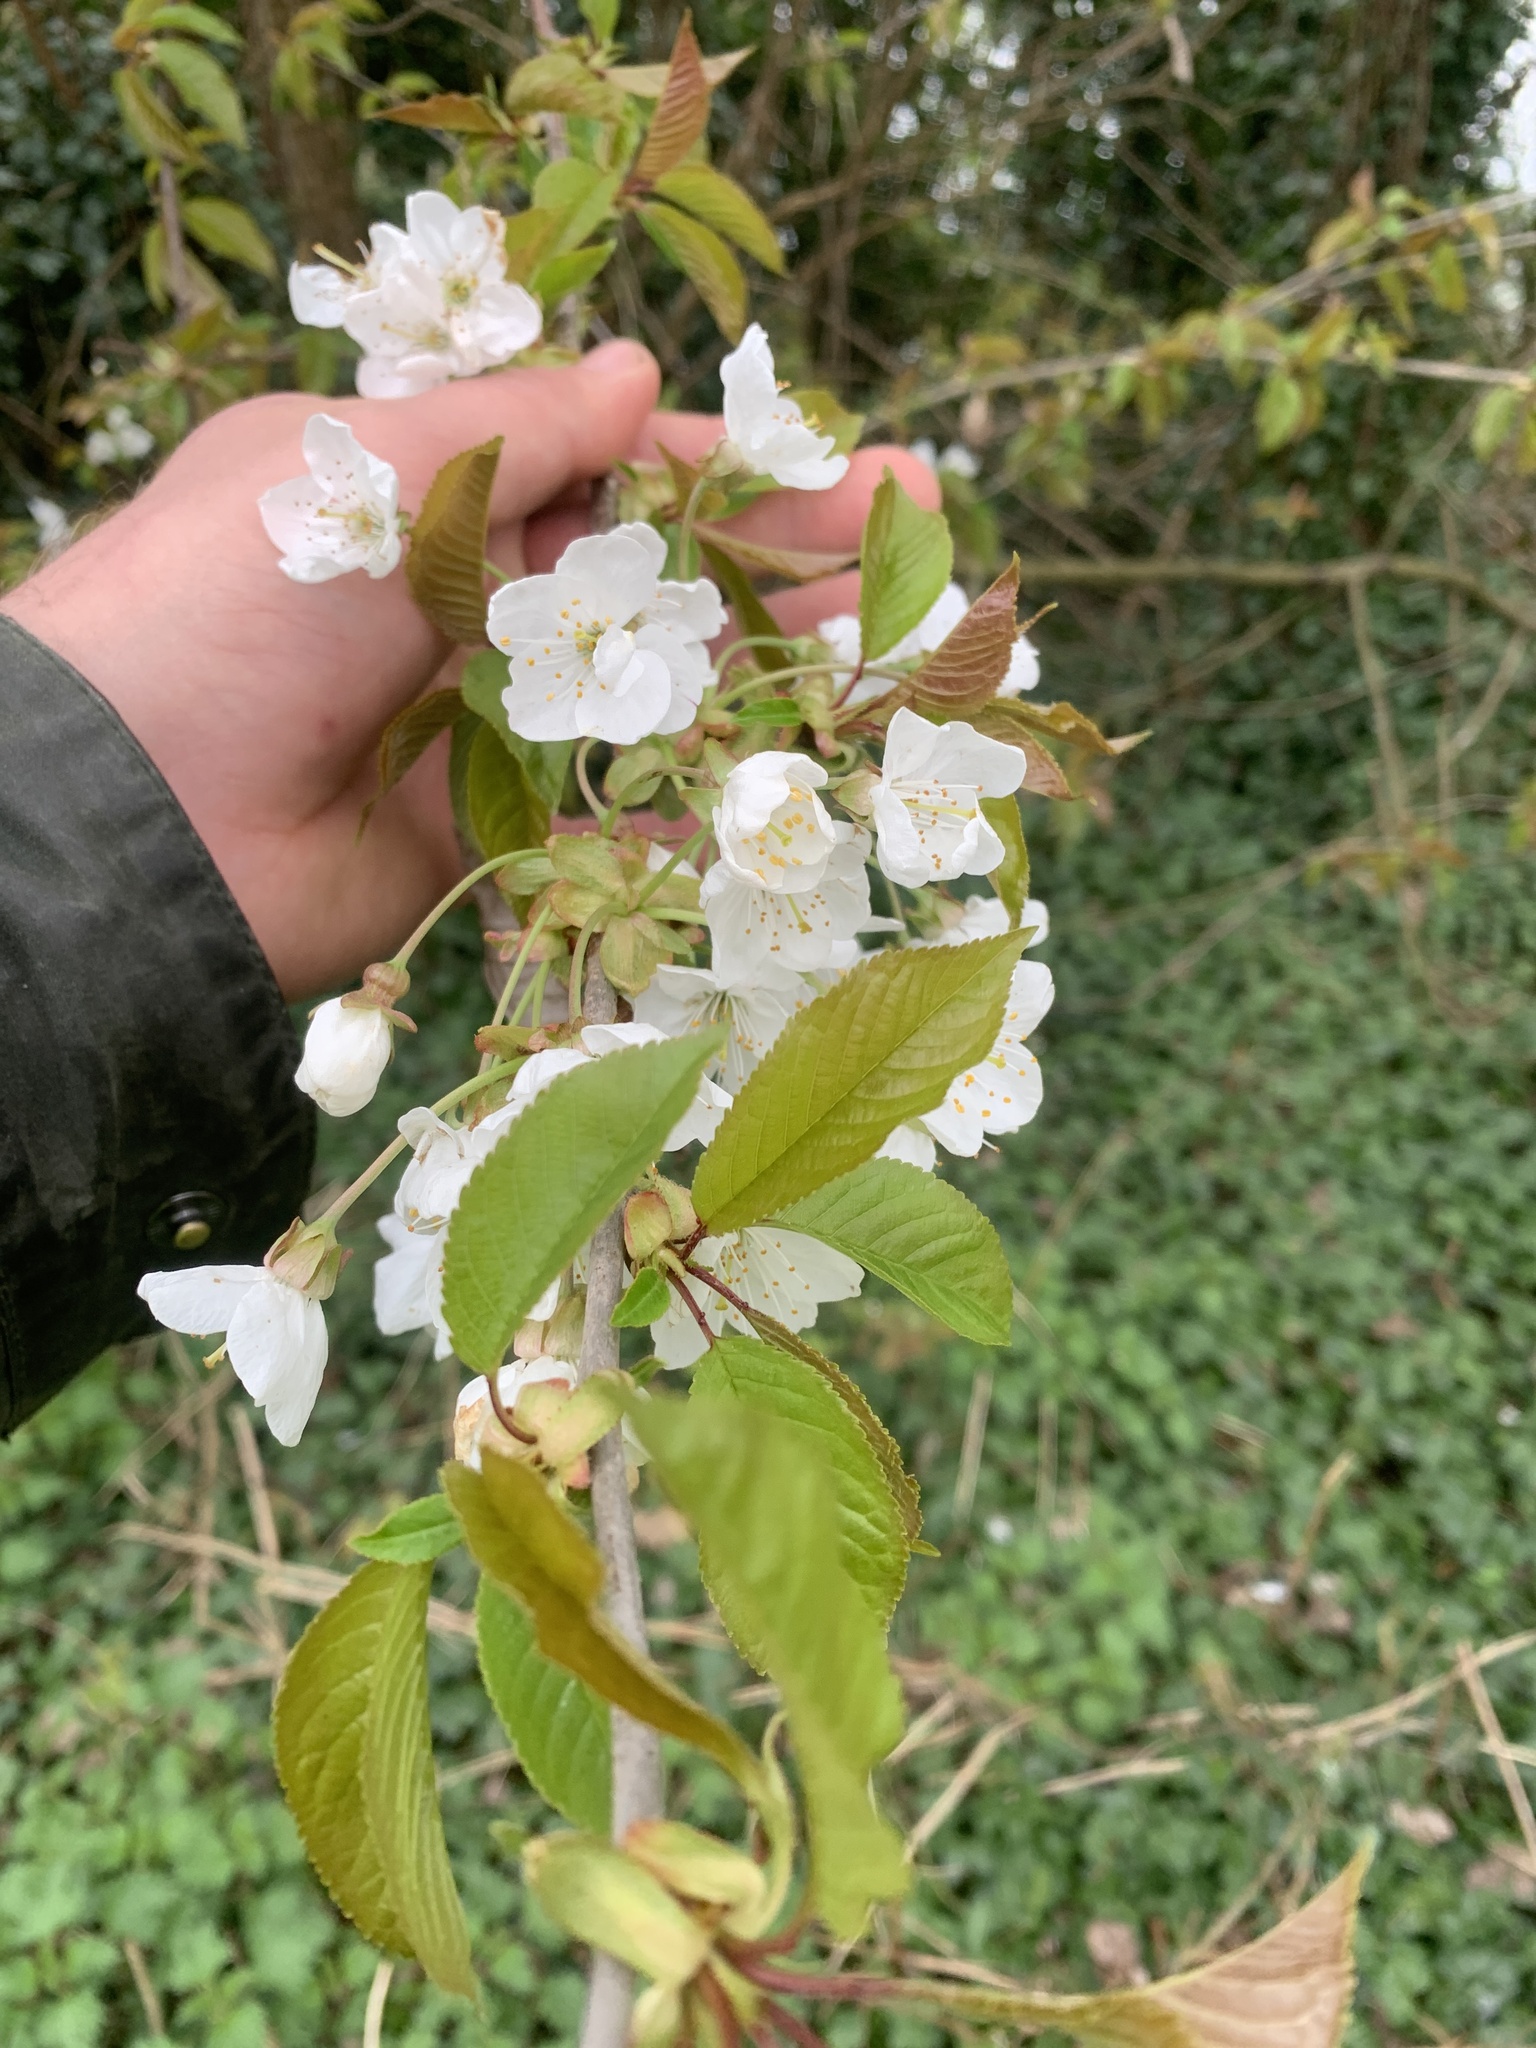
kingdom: Plantae
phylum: Tracheophyta
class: Magnoliopsida
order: Rosales
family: Rosaceae
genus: Prunus
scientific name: Prunus avium
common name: Sweet cherry
